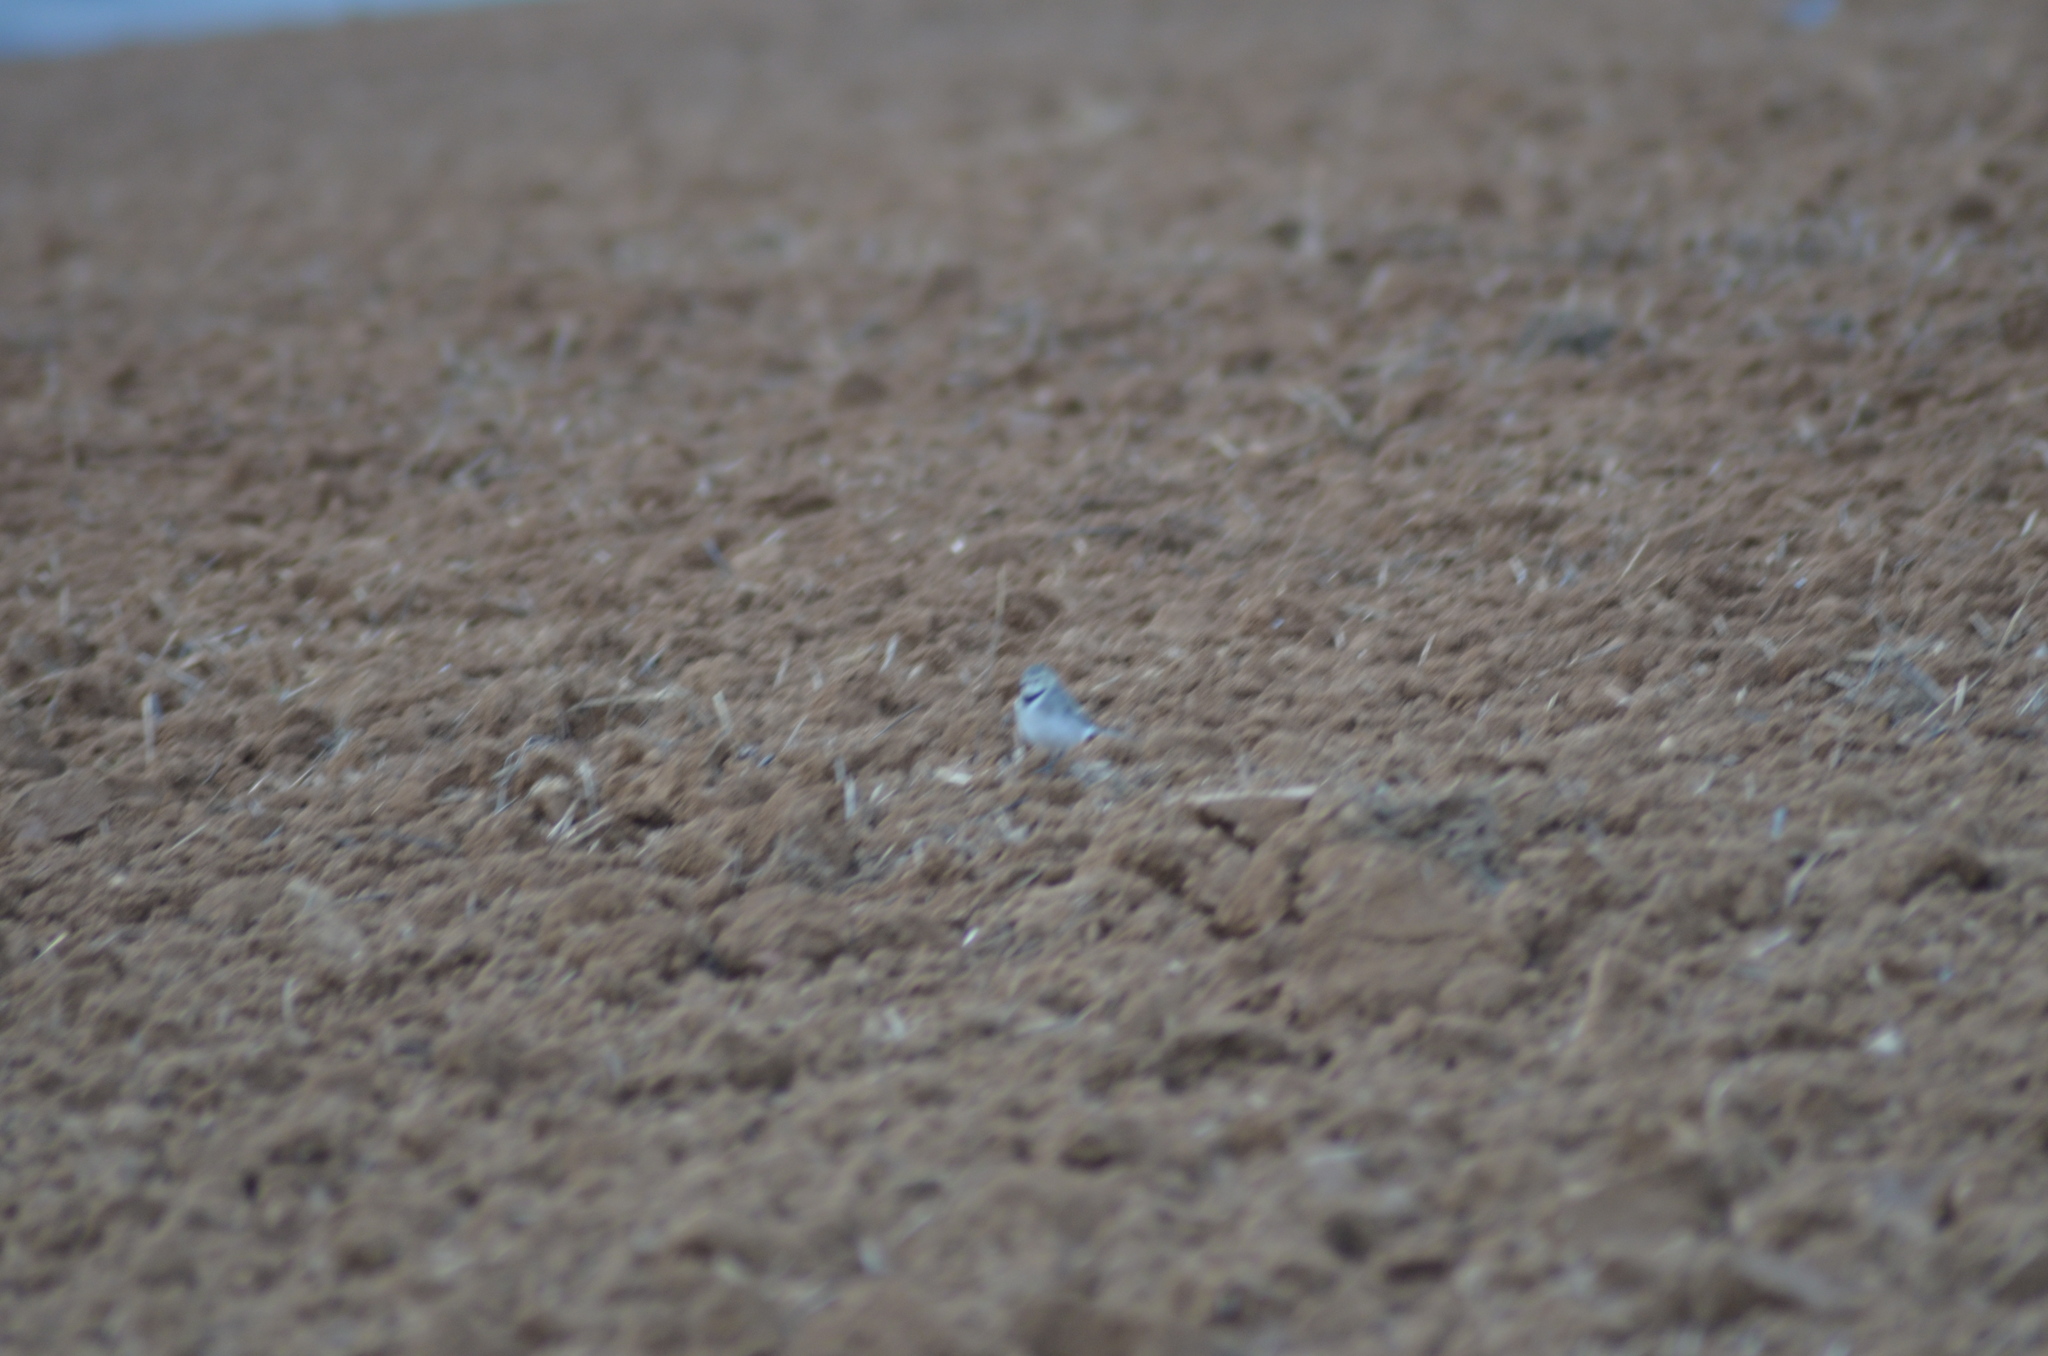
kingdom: Animalia
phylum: Chordata
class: Aves
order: Passeriformes
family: Motacillidae
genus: Motacilla
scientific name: Motacilla alba
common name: White wagtail
